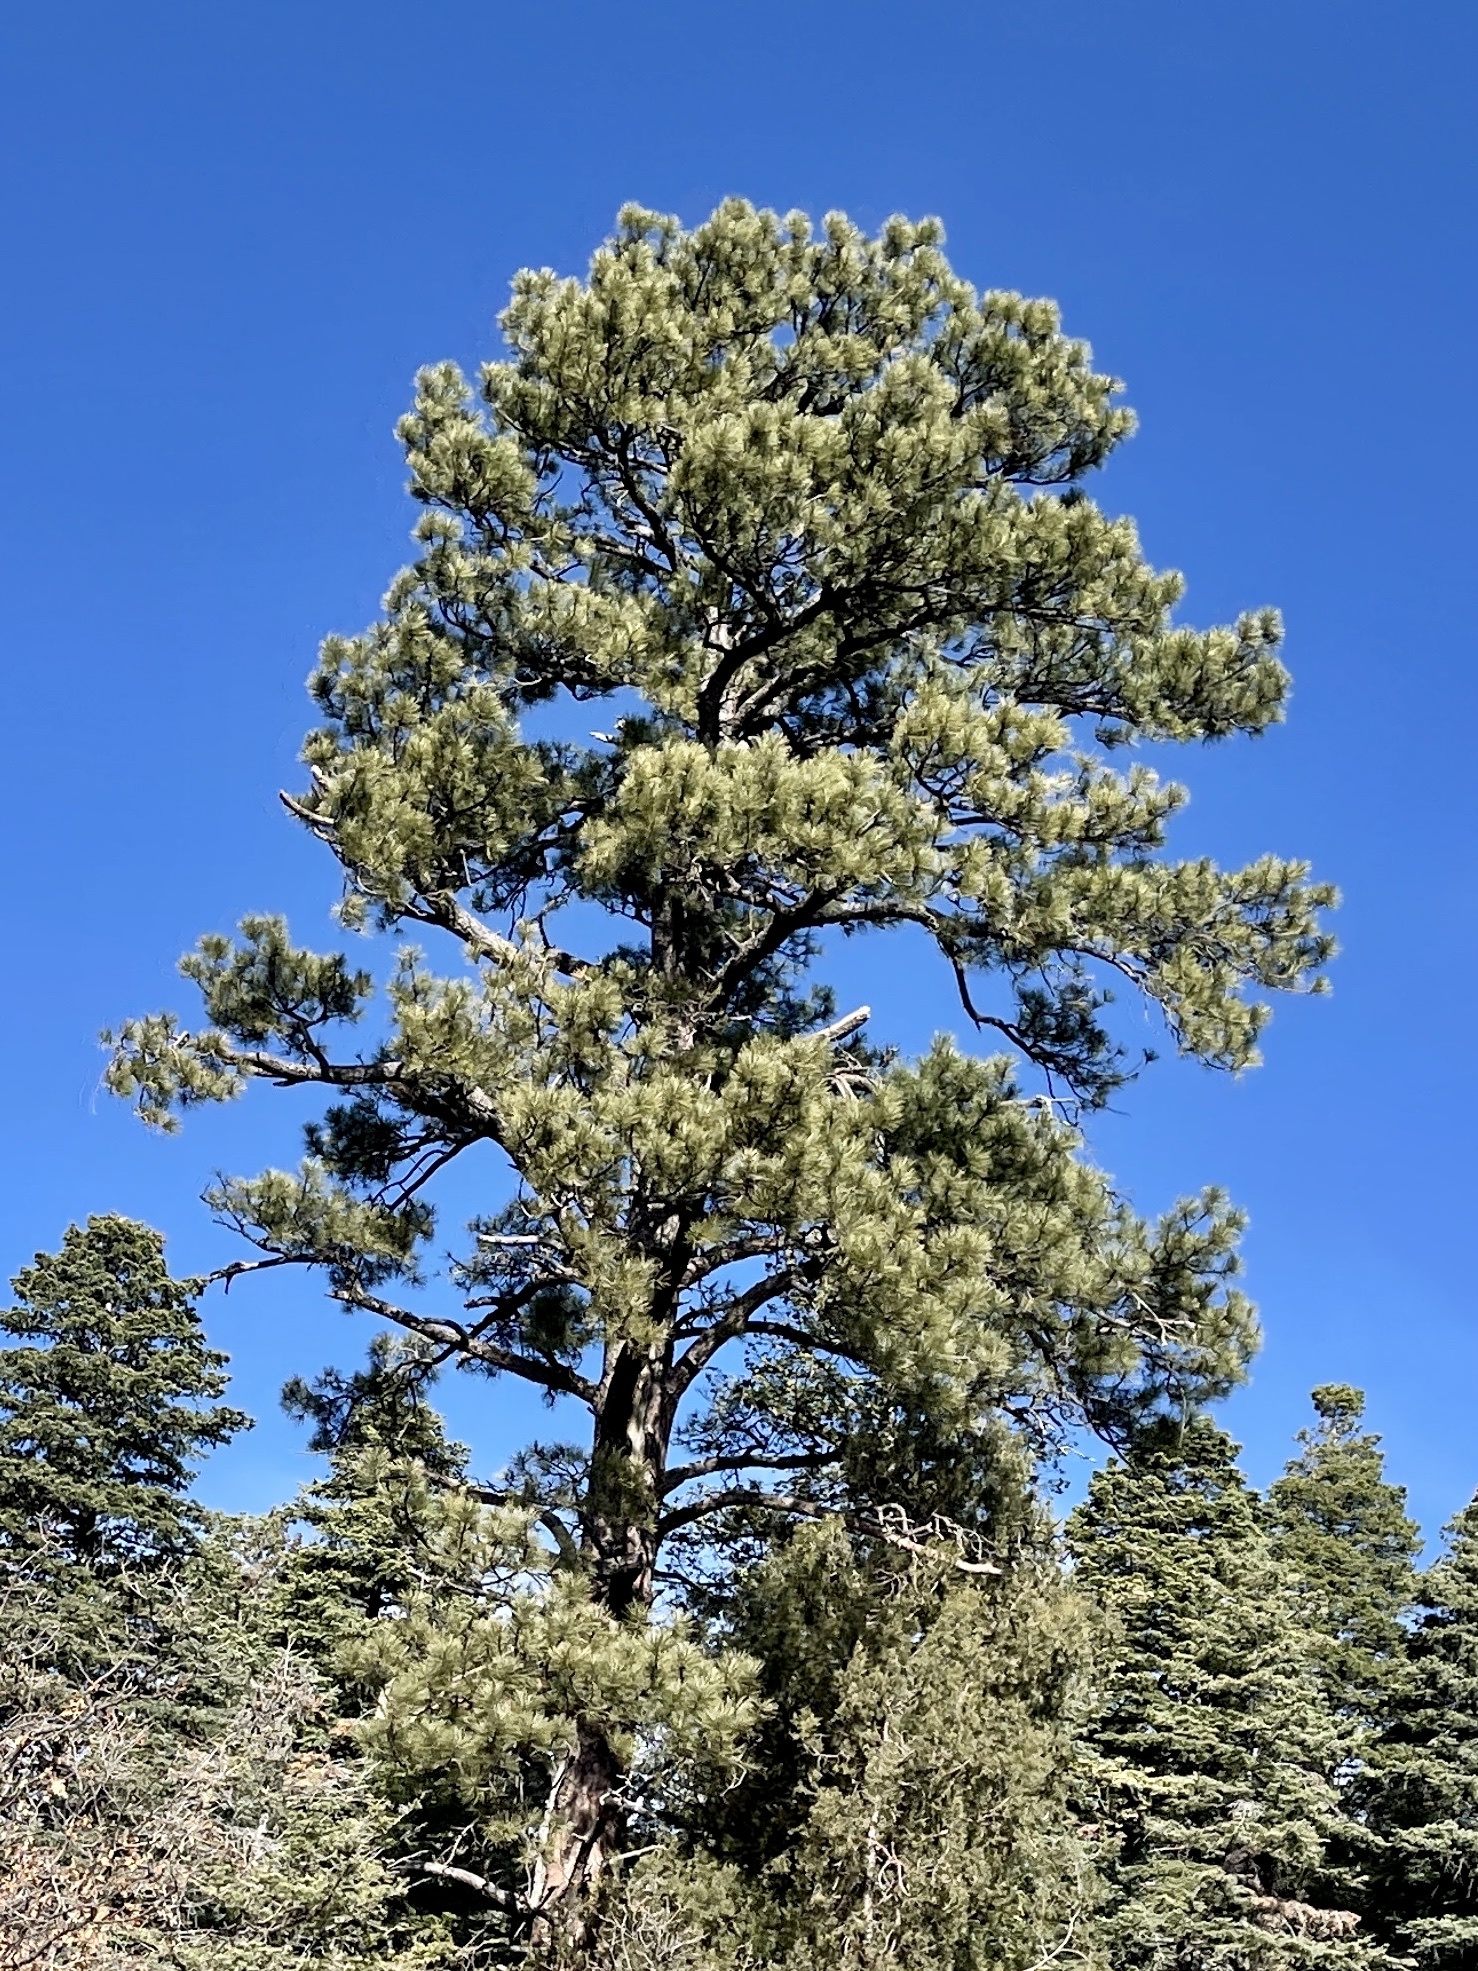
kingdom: Plantae
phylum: Tracheophyta
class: Pinopsida
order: Pinales
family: Pinaceae
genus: Pinus
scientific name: Pinus ponderosa
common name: Western yellow-pine
